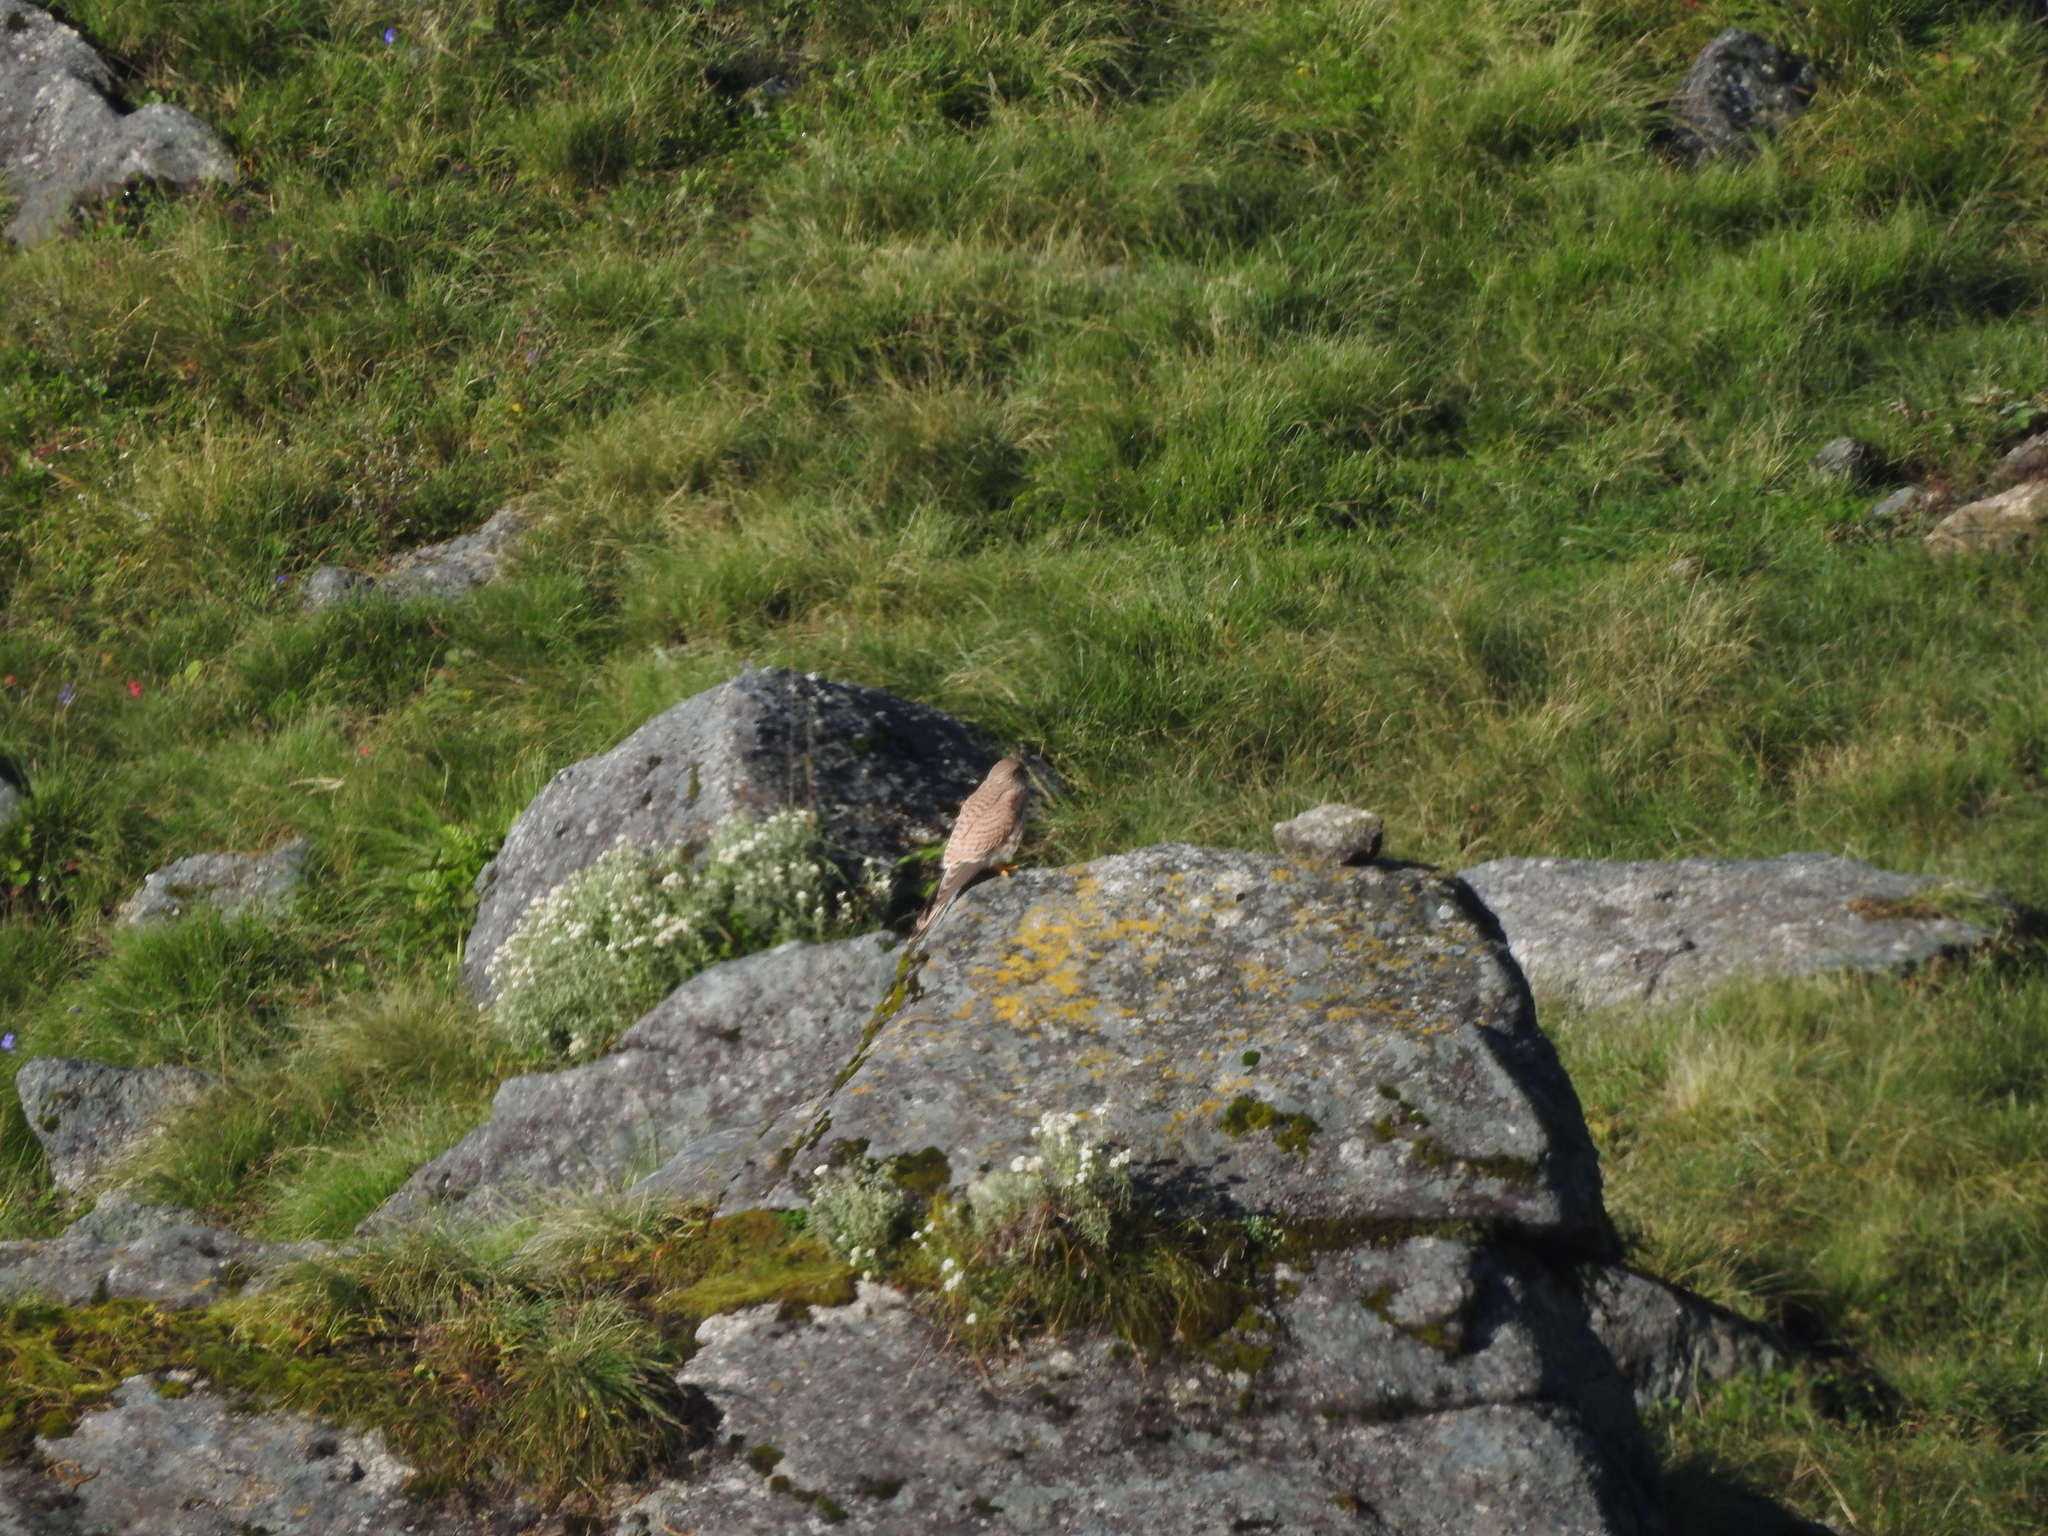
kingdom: Animalia
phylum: Chordata
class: Aves
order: Falconiformes
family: Falconidae
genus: Falco
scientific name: Falco tinnunculus
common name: Common kestrel
